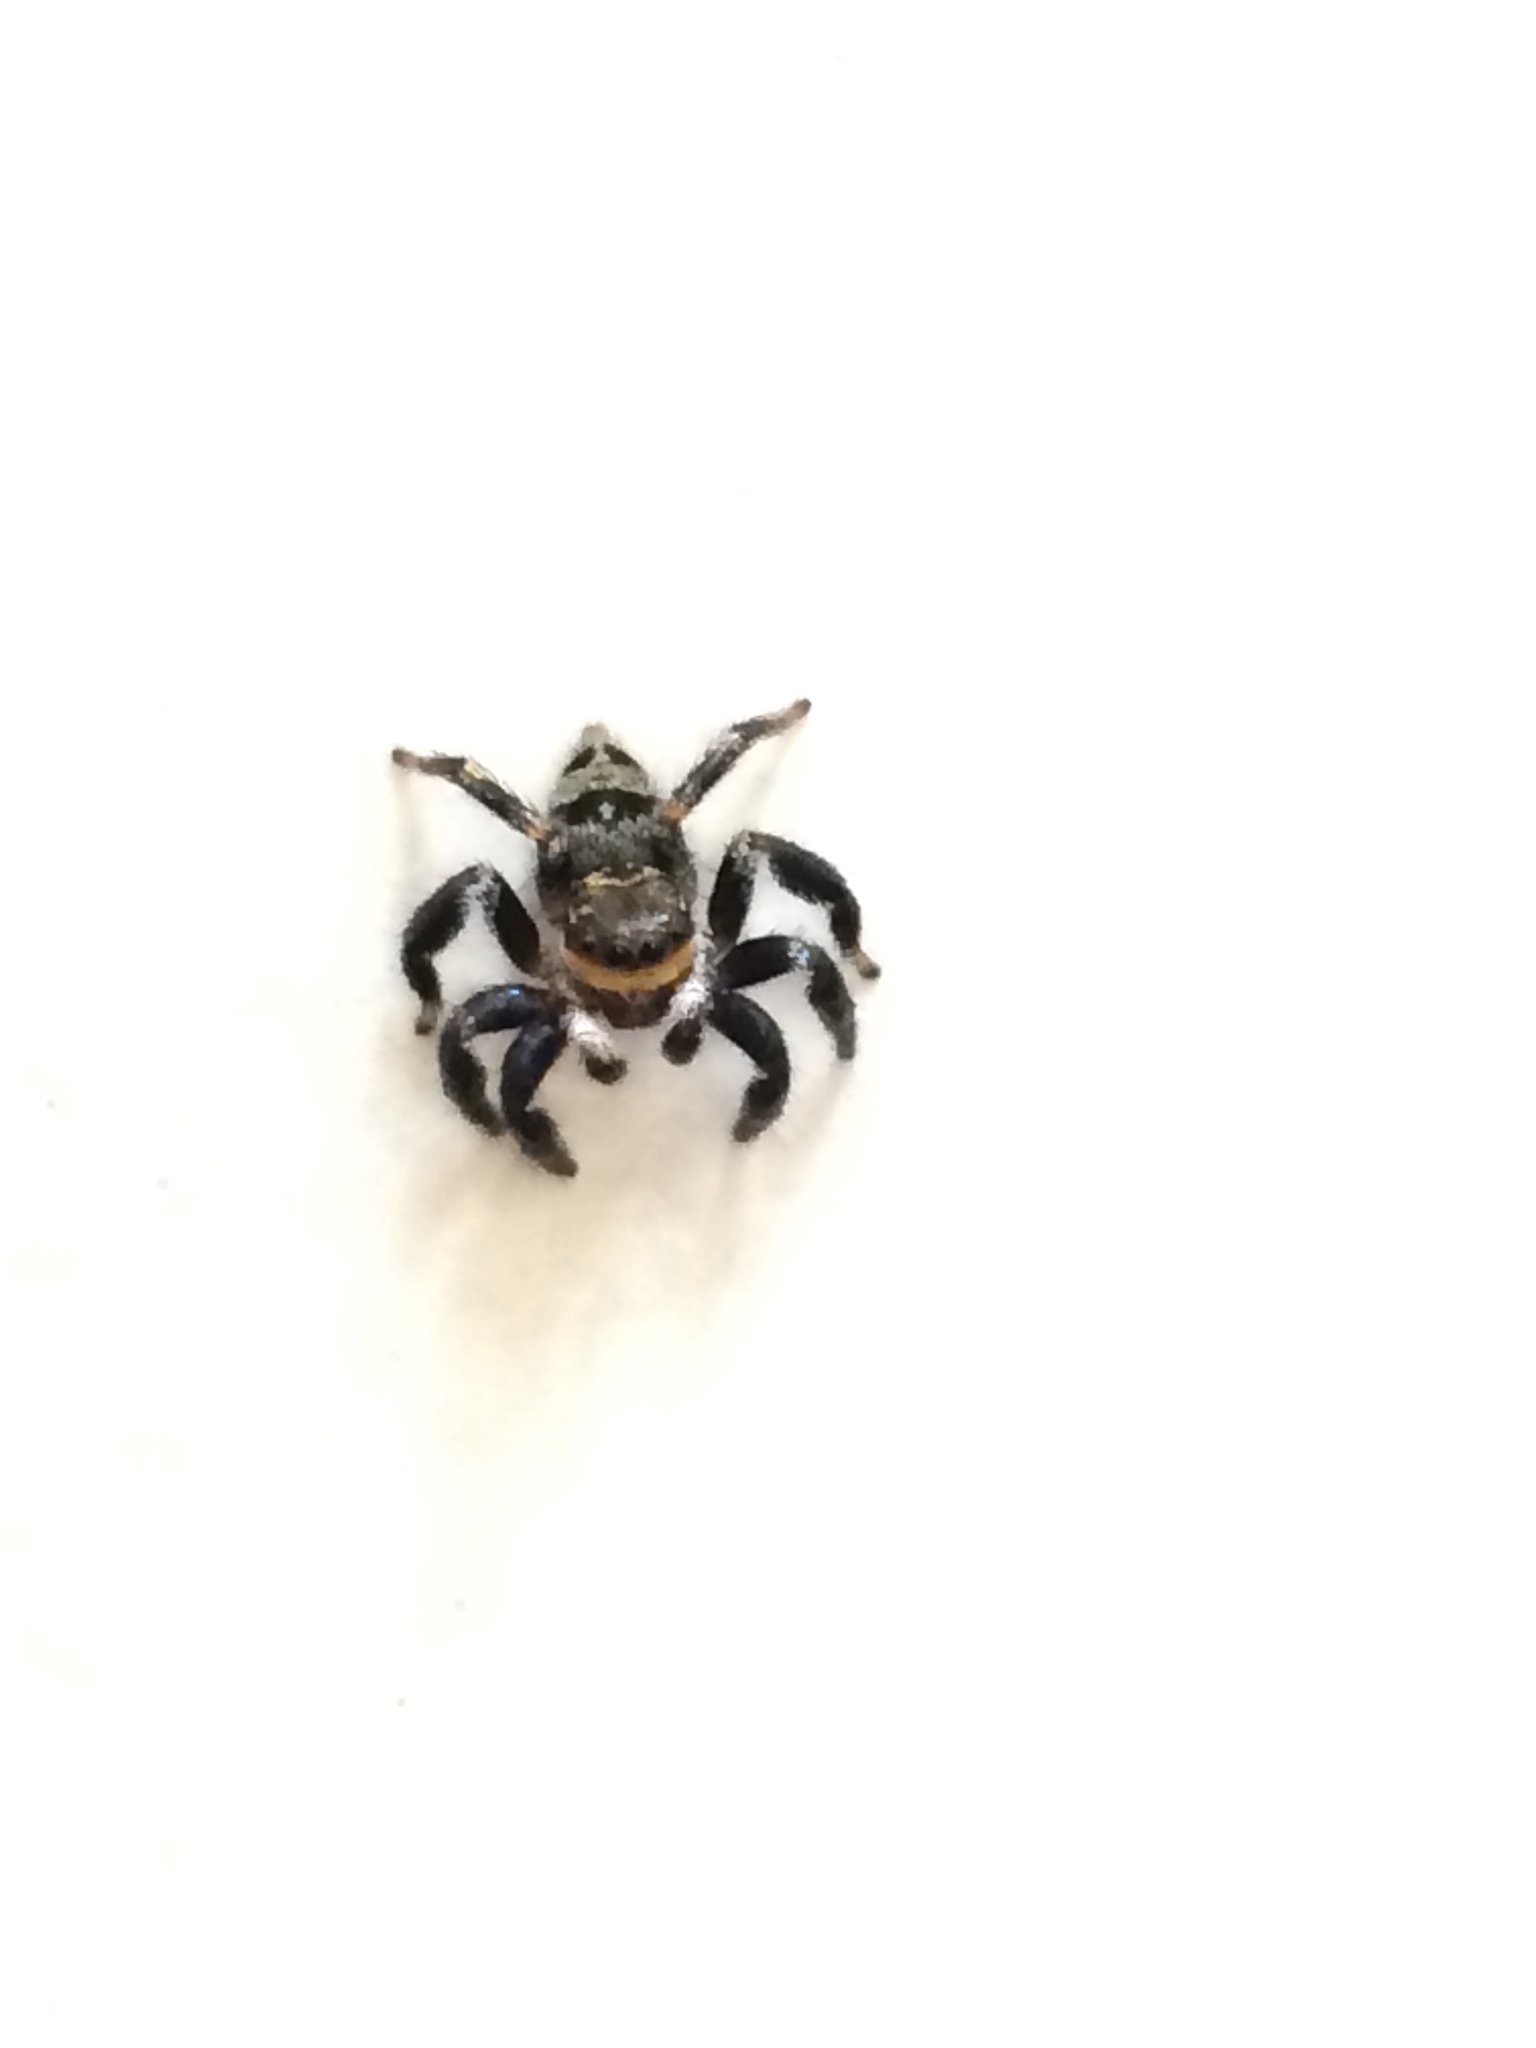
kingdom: Animalia
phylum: Arthropoda
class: Arachnida
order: Araneae
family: Salticidae
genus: Corythalia
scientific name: Corythalia conferta
